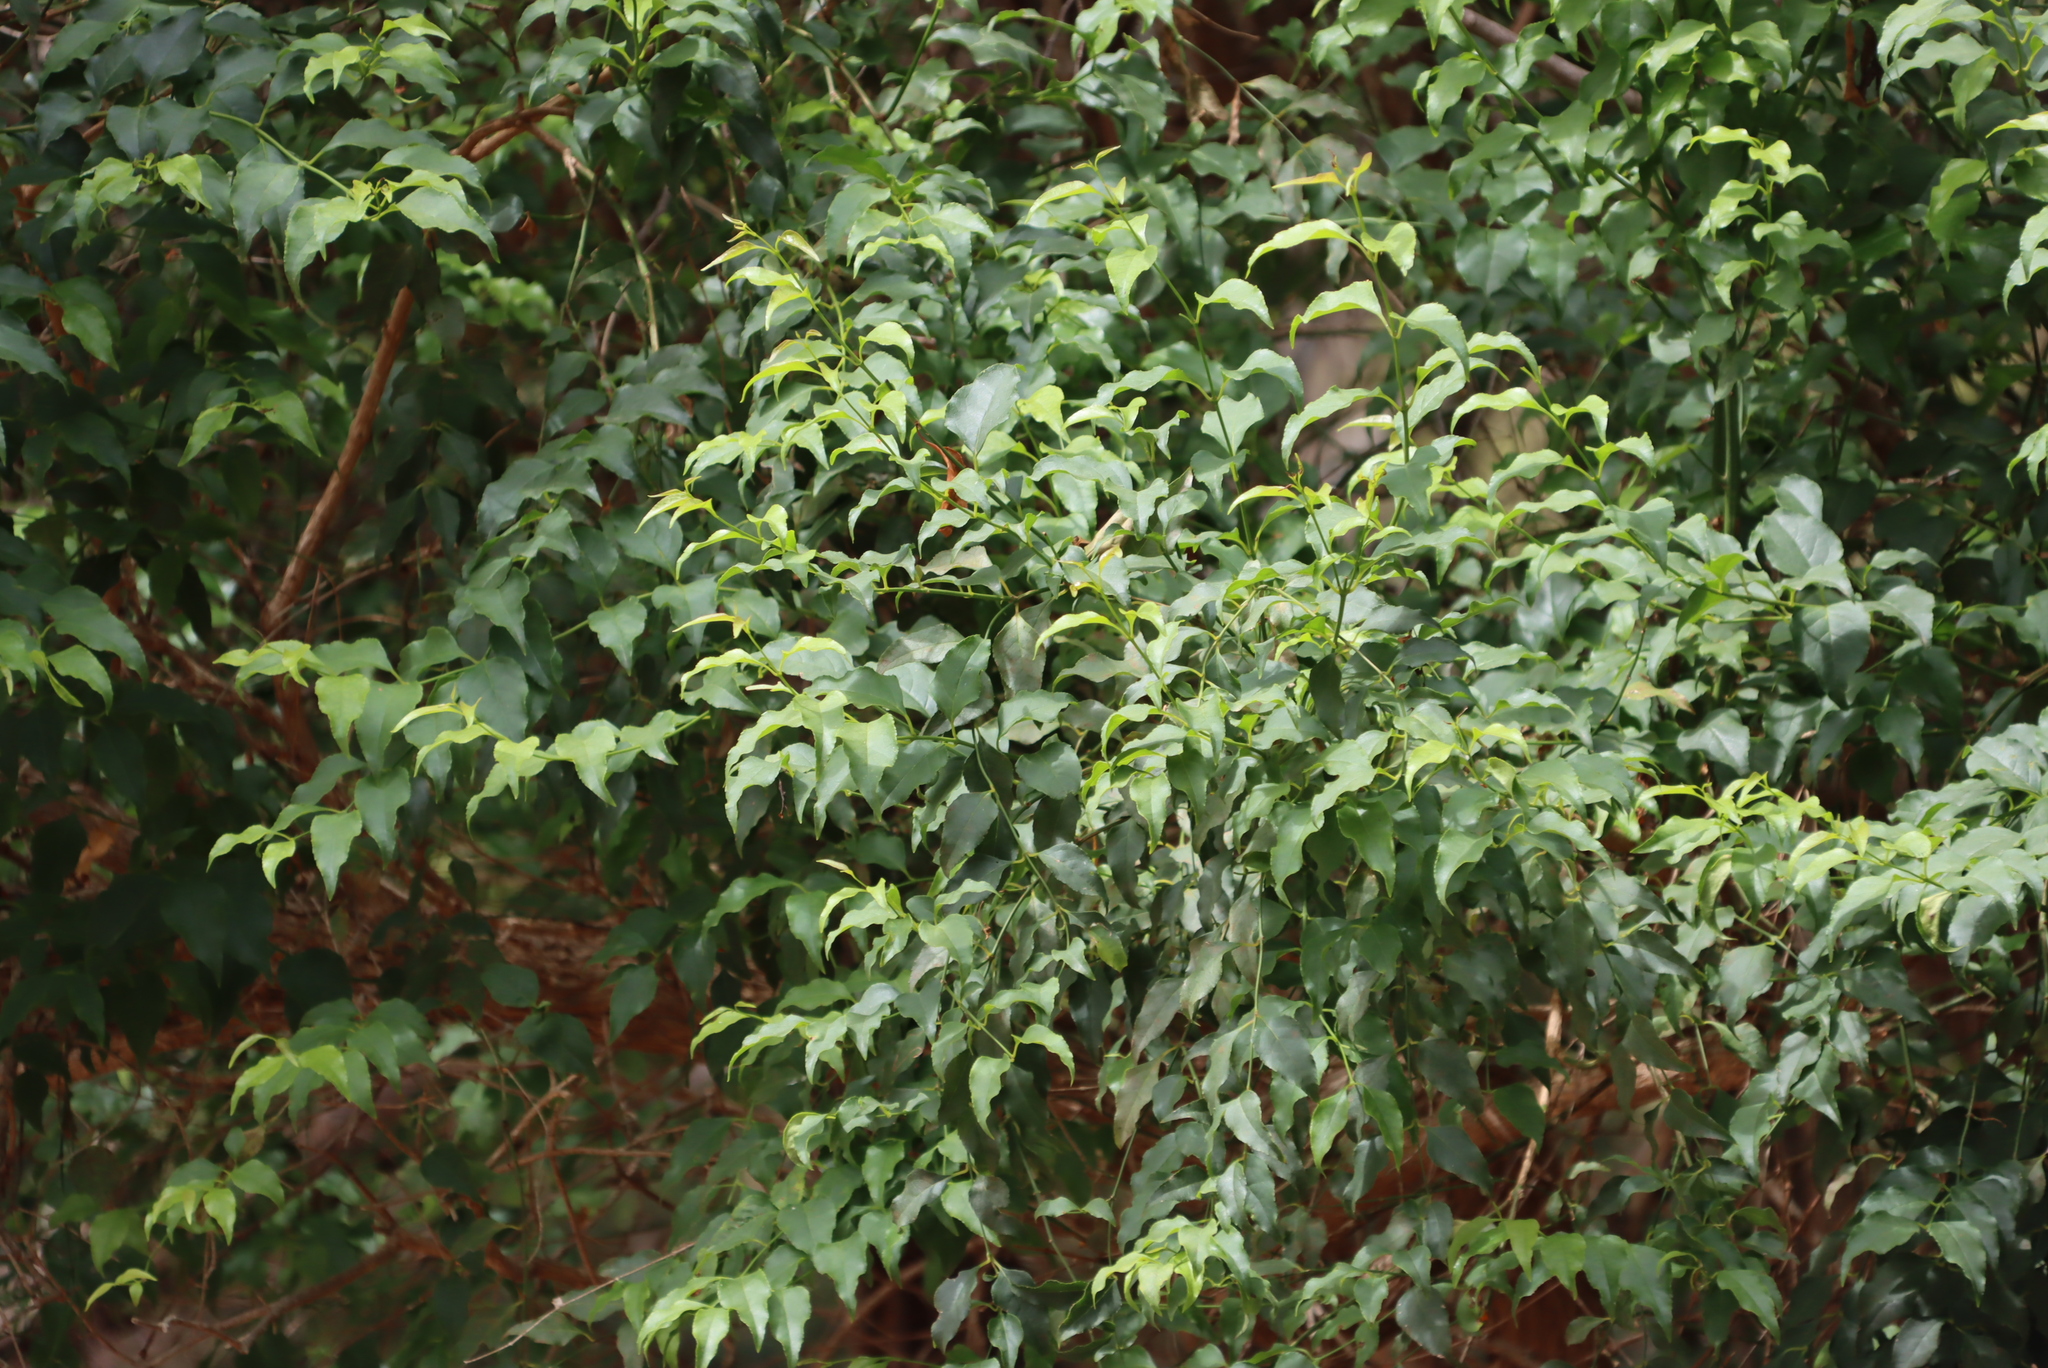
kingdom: Plantae
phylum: Tracheophyta
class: Magnoliopsida
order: Lamiales
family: Stilbaceae
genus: Halleria
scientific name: Halleria lucida
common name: Tree fuschia
